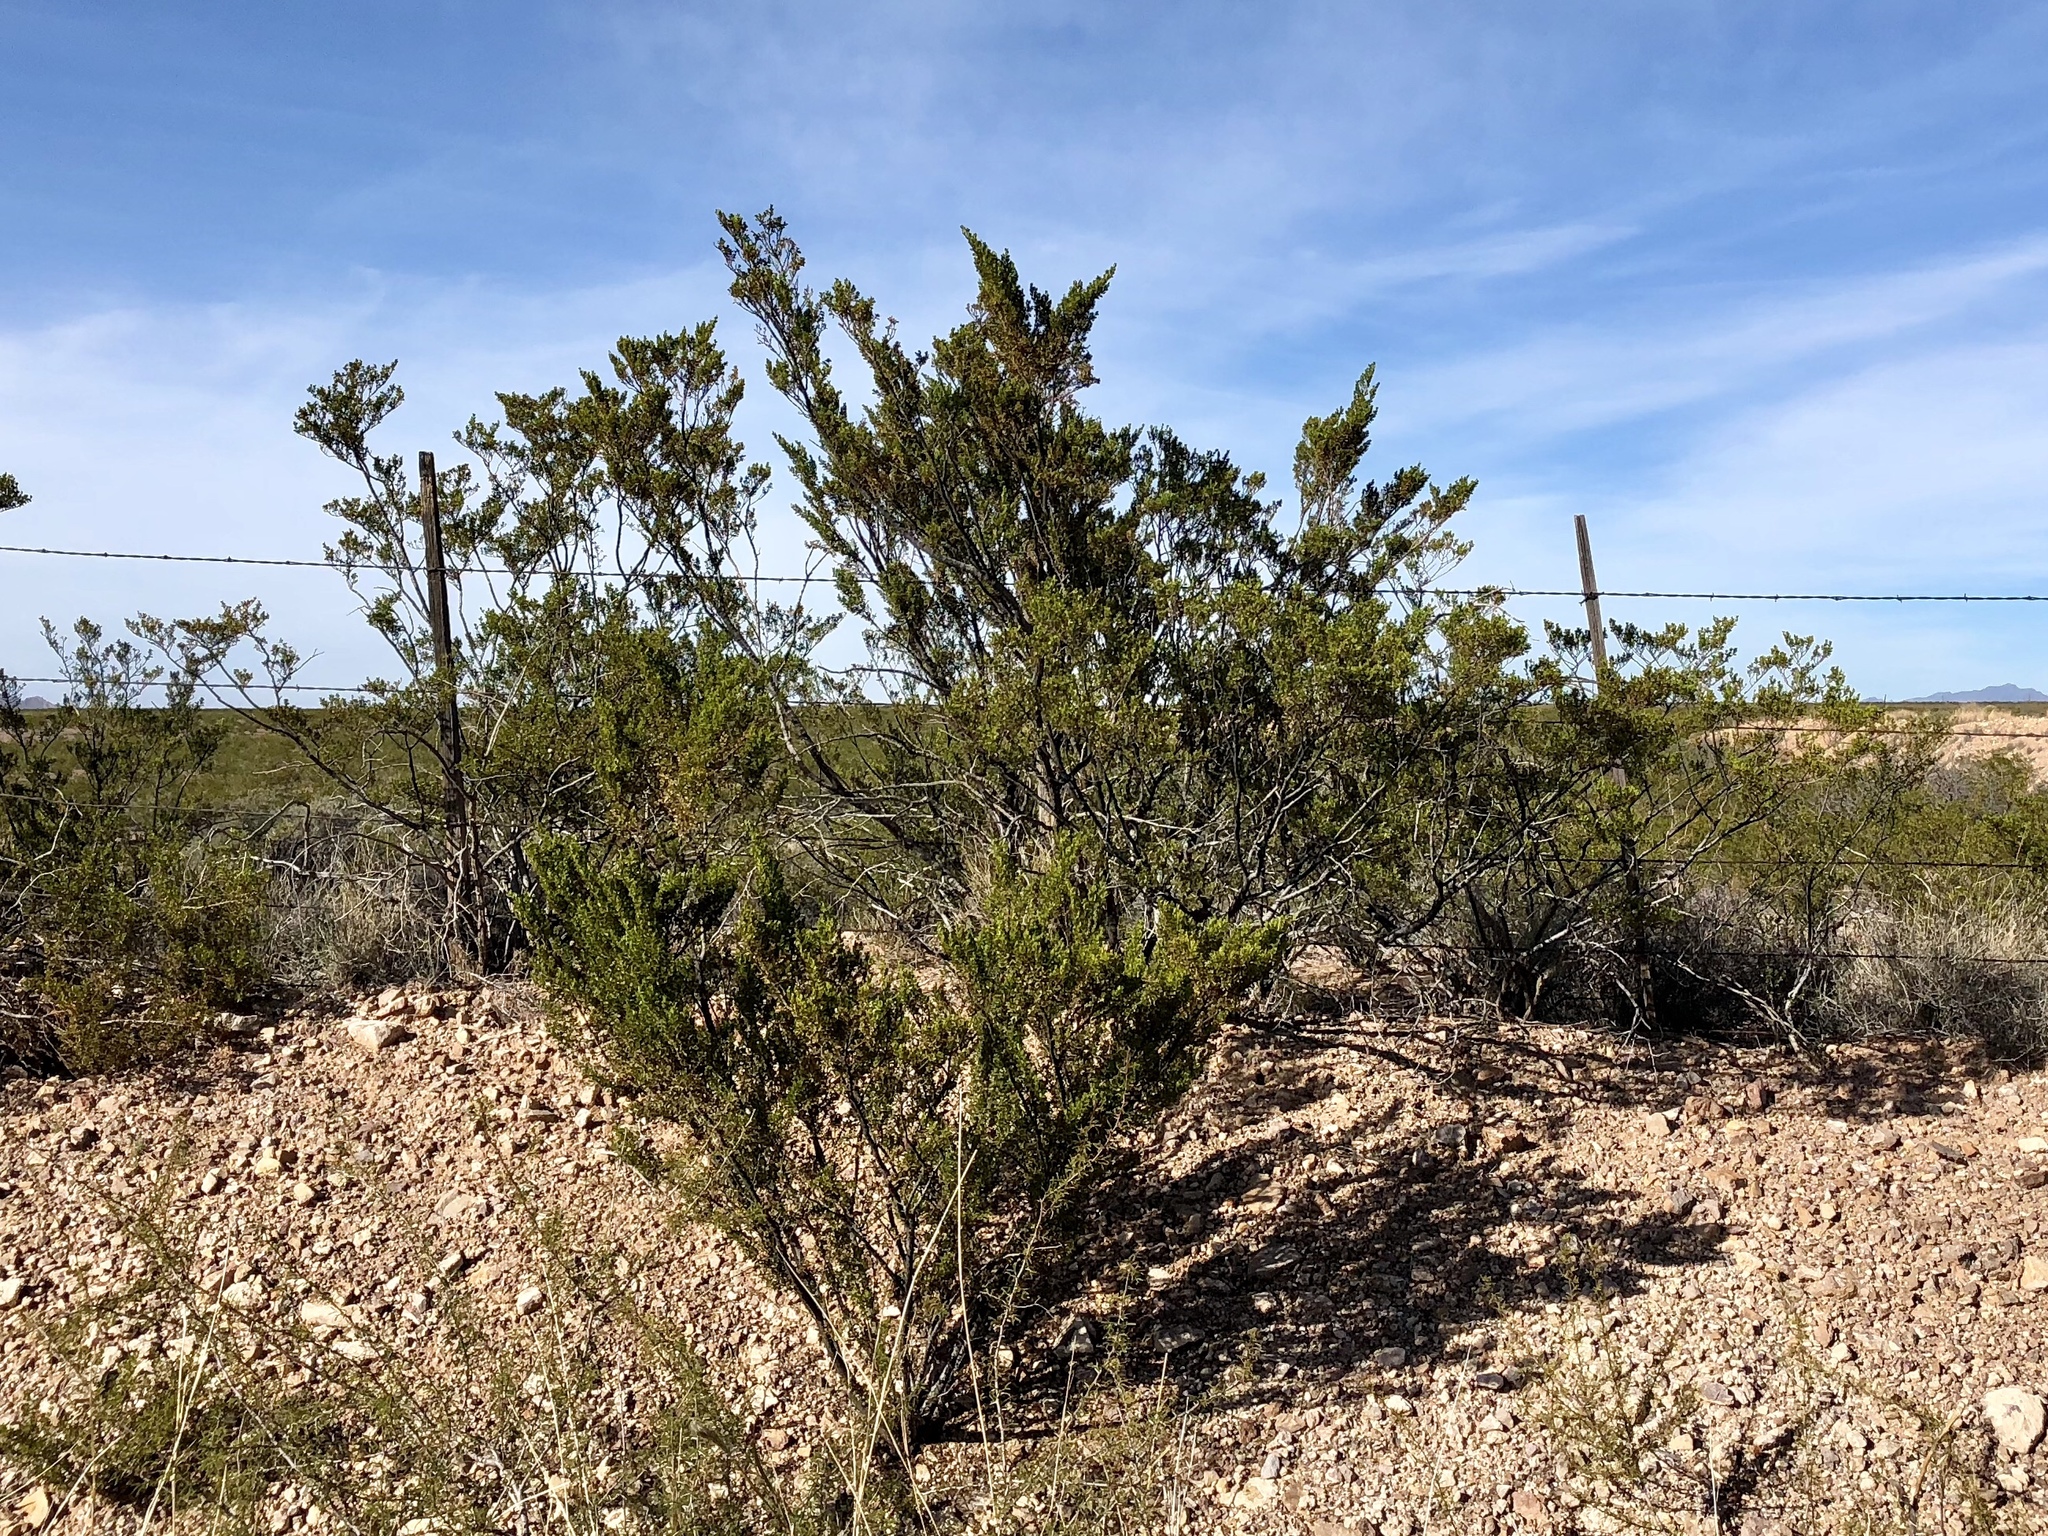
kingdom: Plantae
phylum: Tracheophyta
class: Magnoliopsida
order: Zygophyllales
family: Zygophyllaceae
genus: Larrea
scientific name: Larrea tridentata
